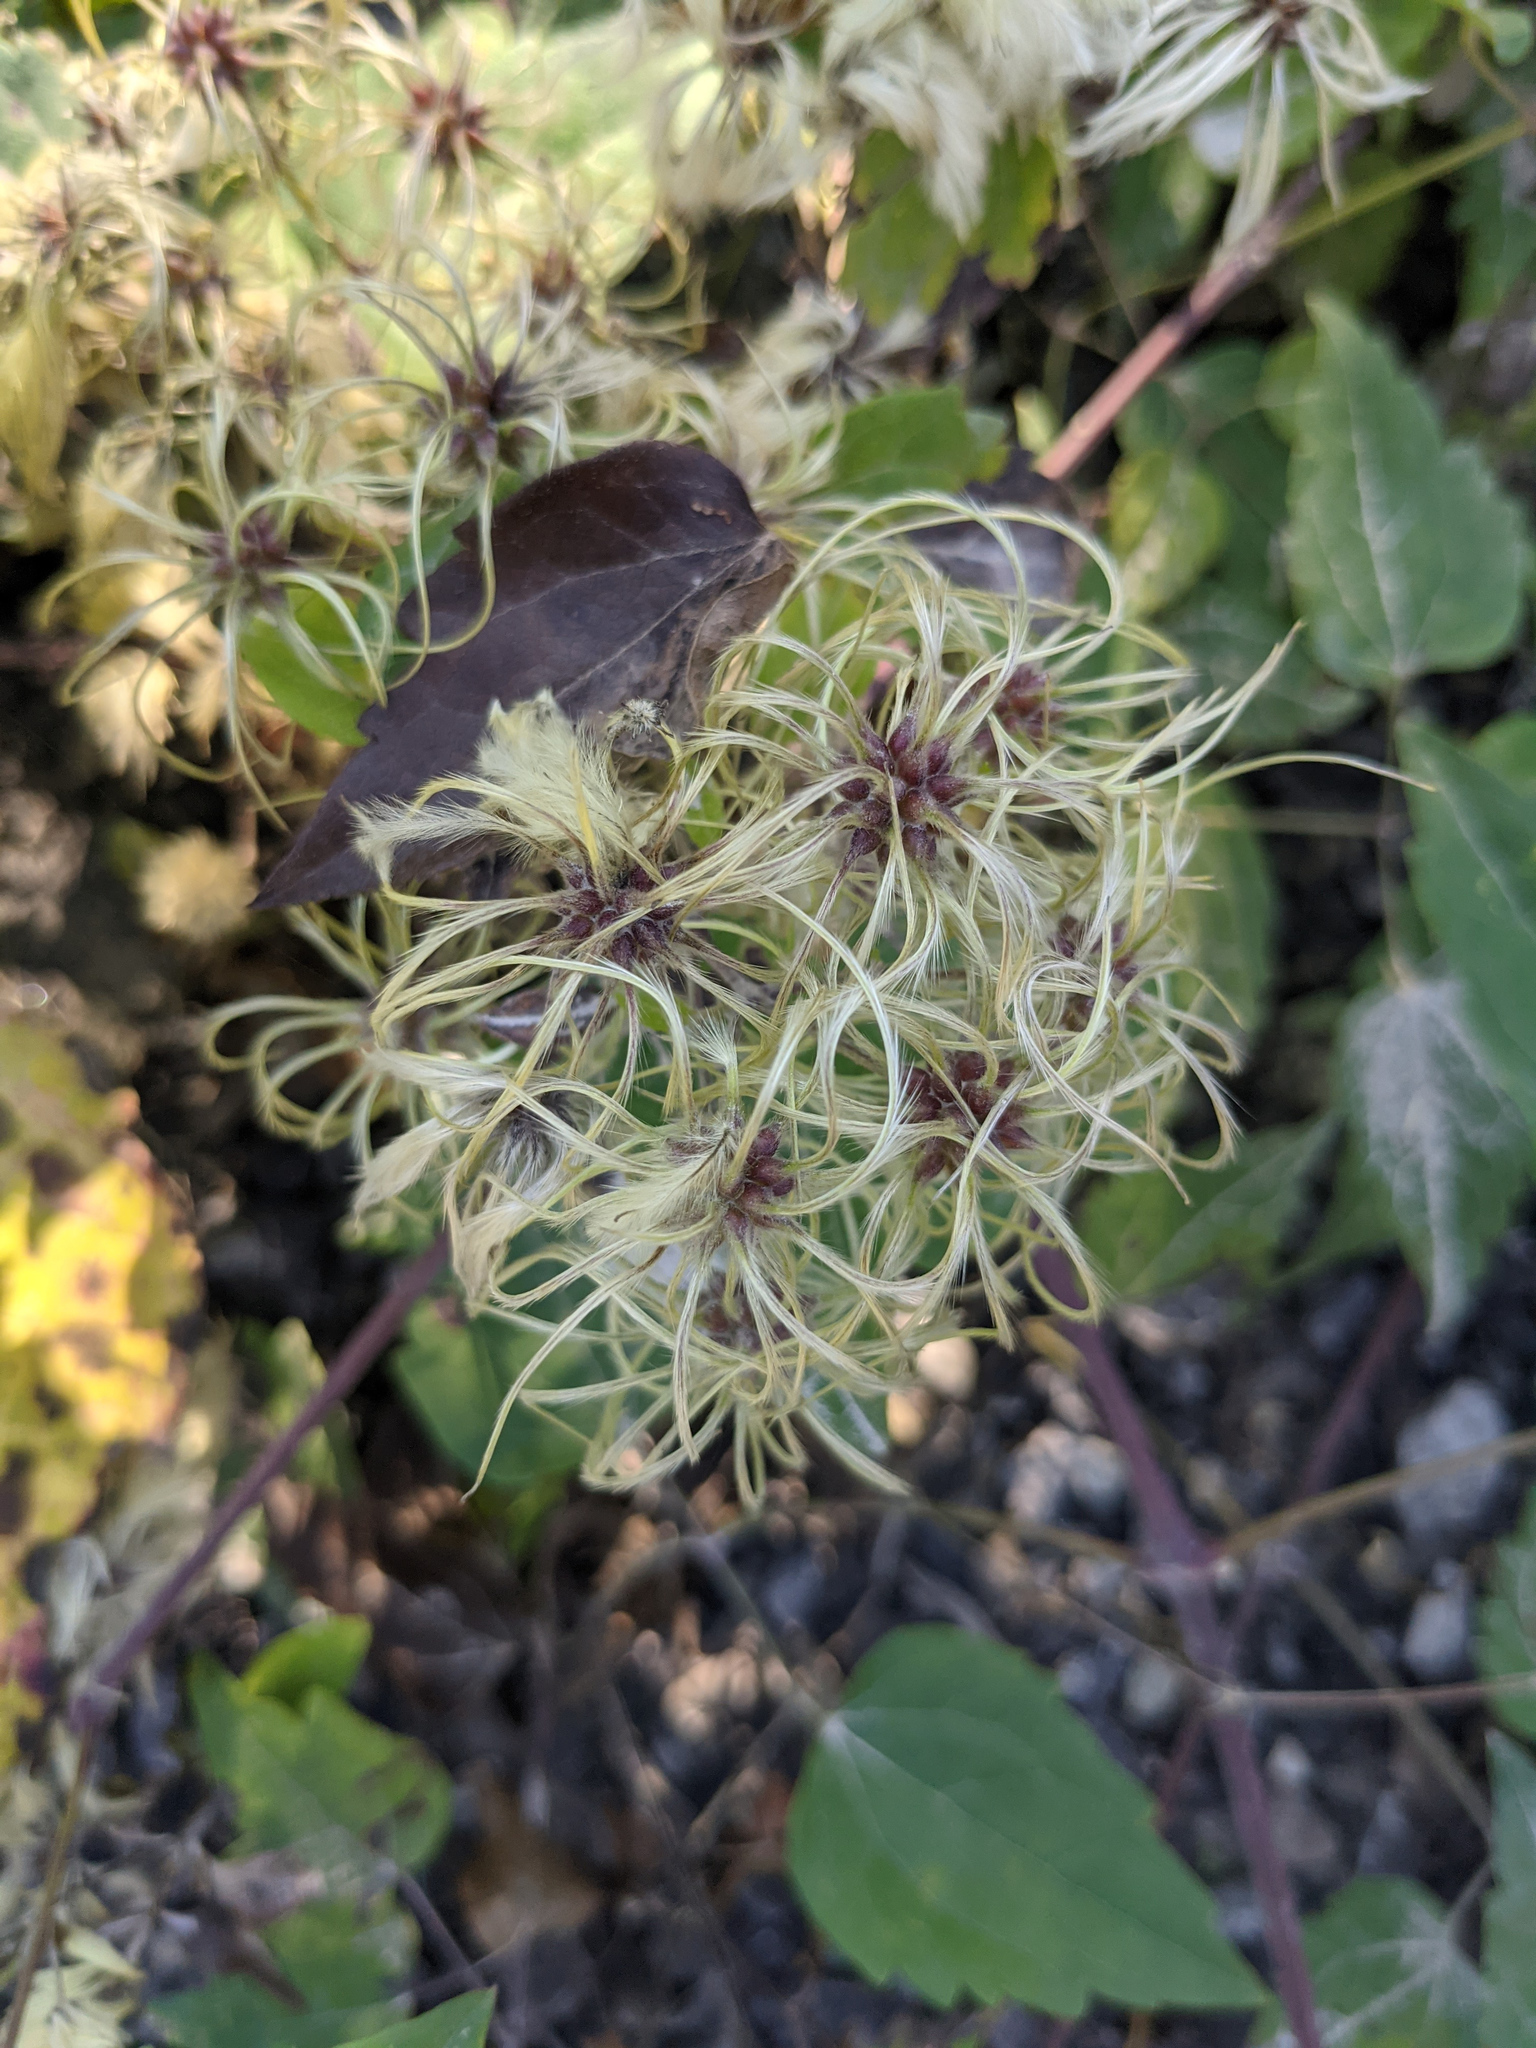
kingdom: Plantae
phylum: Tracheophyta
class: Magnoliopsida
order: Ranunculales
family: Ranunculaceae
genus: Clematis
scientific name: Clematis vitalba
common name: Evergreen clematis
